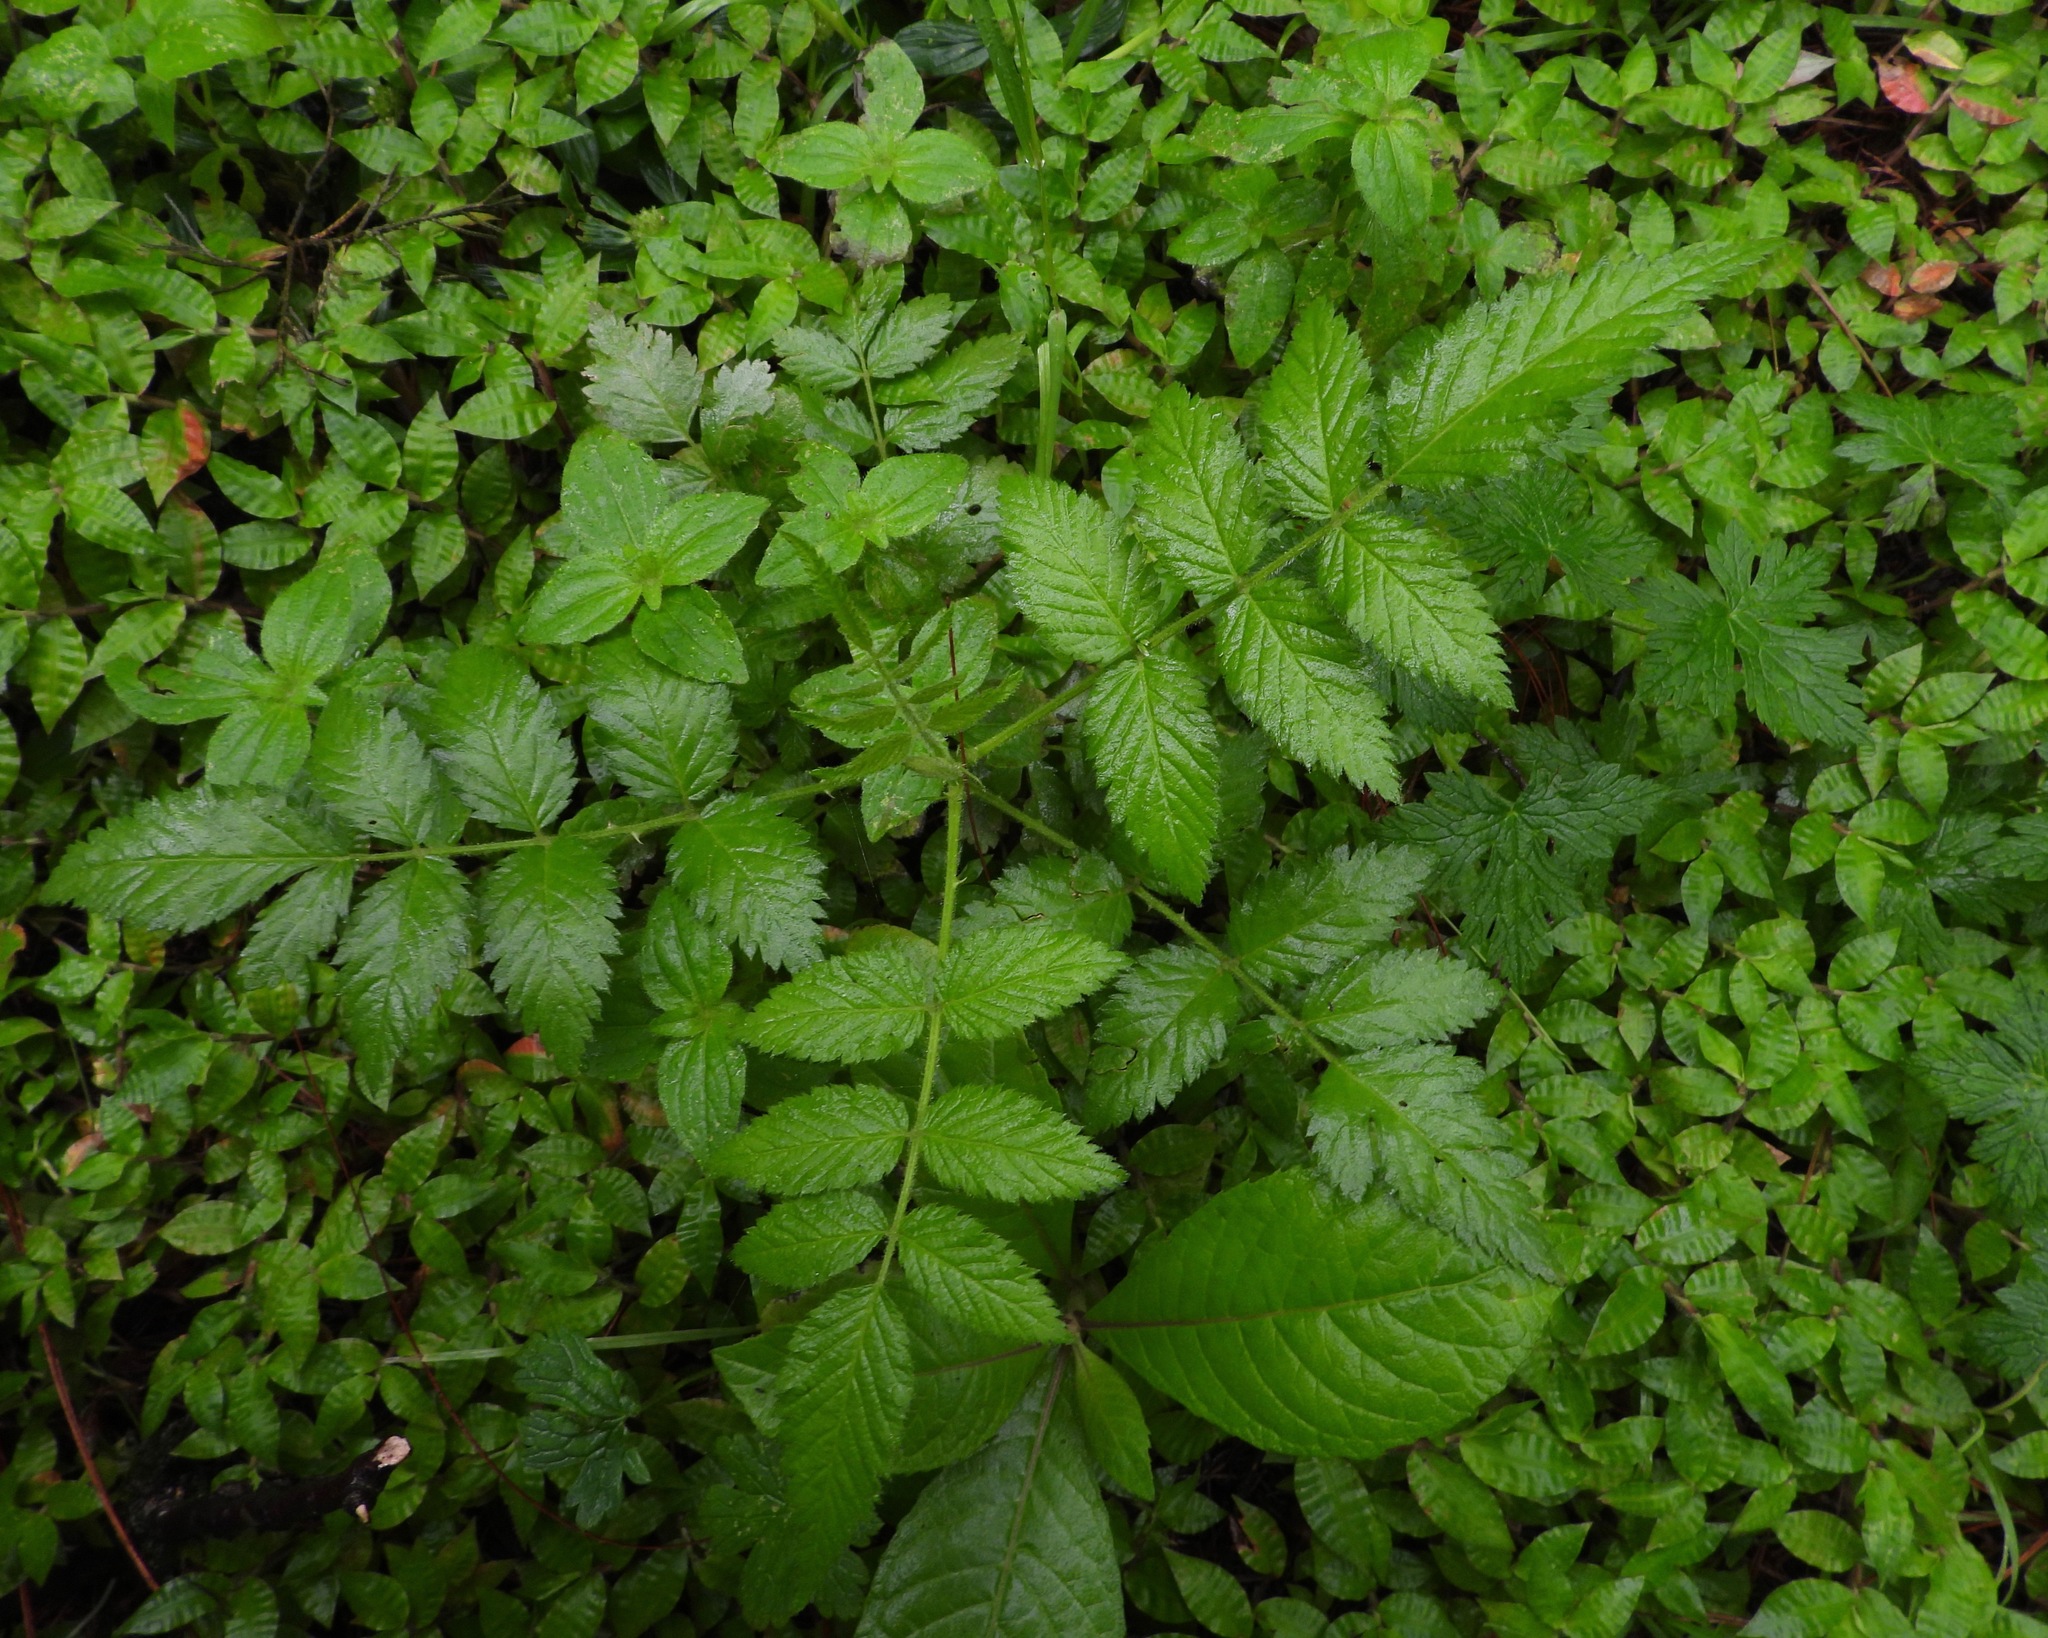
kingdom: Plantae
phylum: Tracheophyta
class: Magnoliopsida
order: Rosales
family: Rosaceae
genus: Rubus
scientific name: Rubus rosifolius
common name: Roseleaf raspberry
